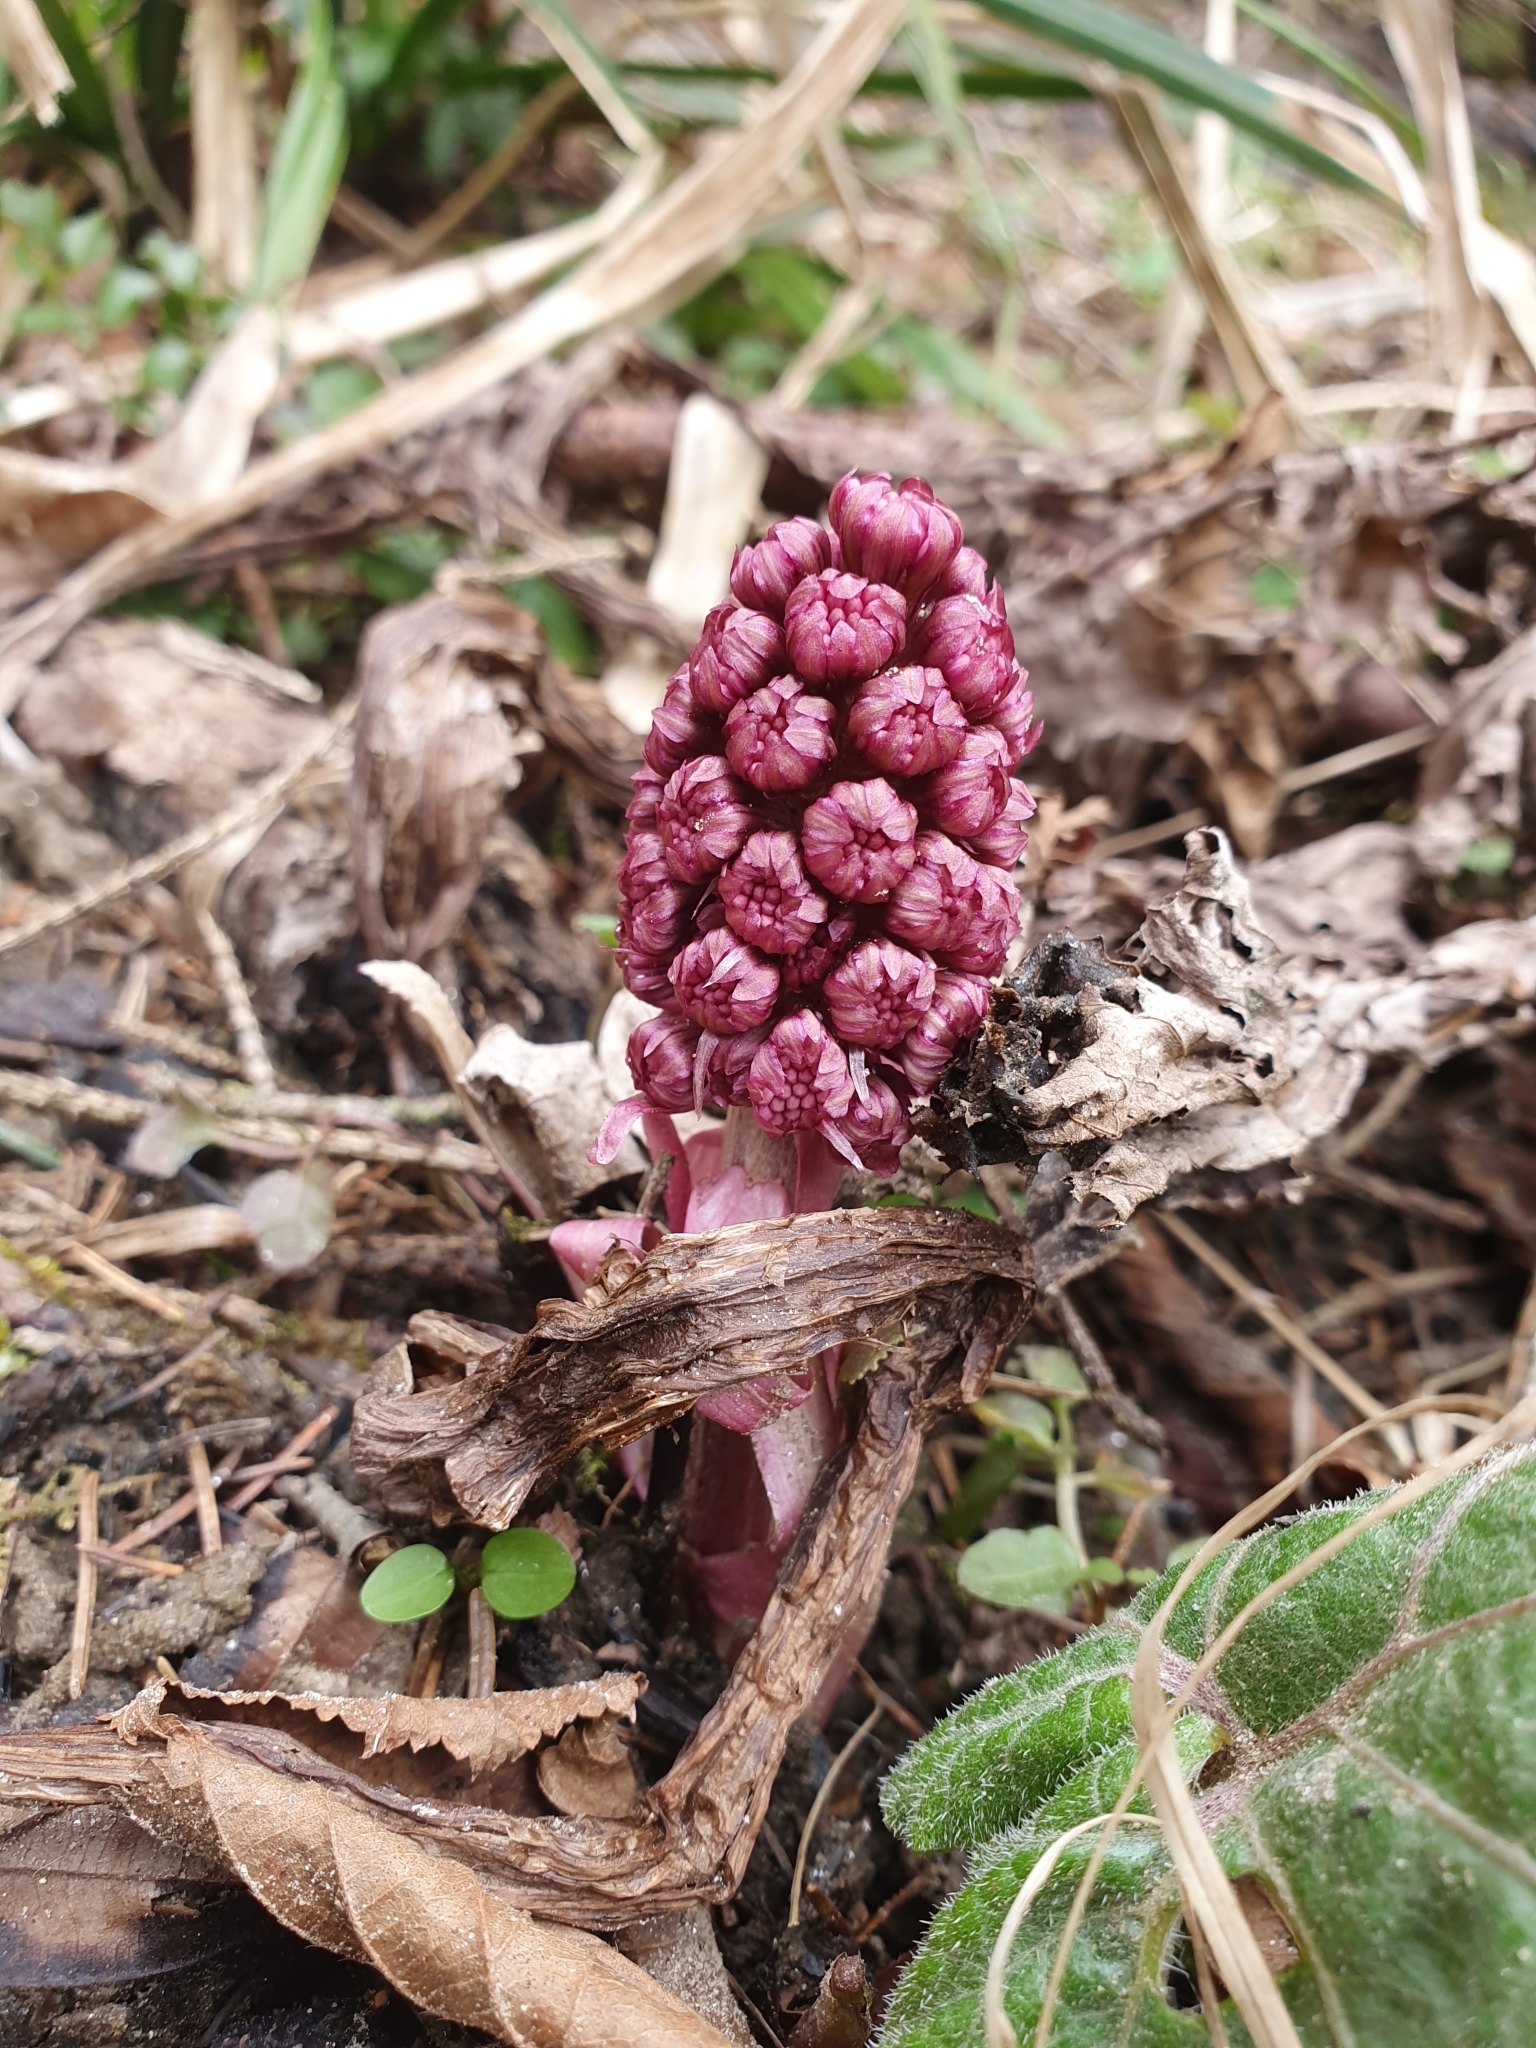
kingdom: Plantae
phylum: Tracheophyta
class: Magnoliopsida
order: Asterales
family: Asteraceae
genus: Petasites
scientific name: Petasites hybridus
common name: Butterbur
